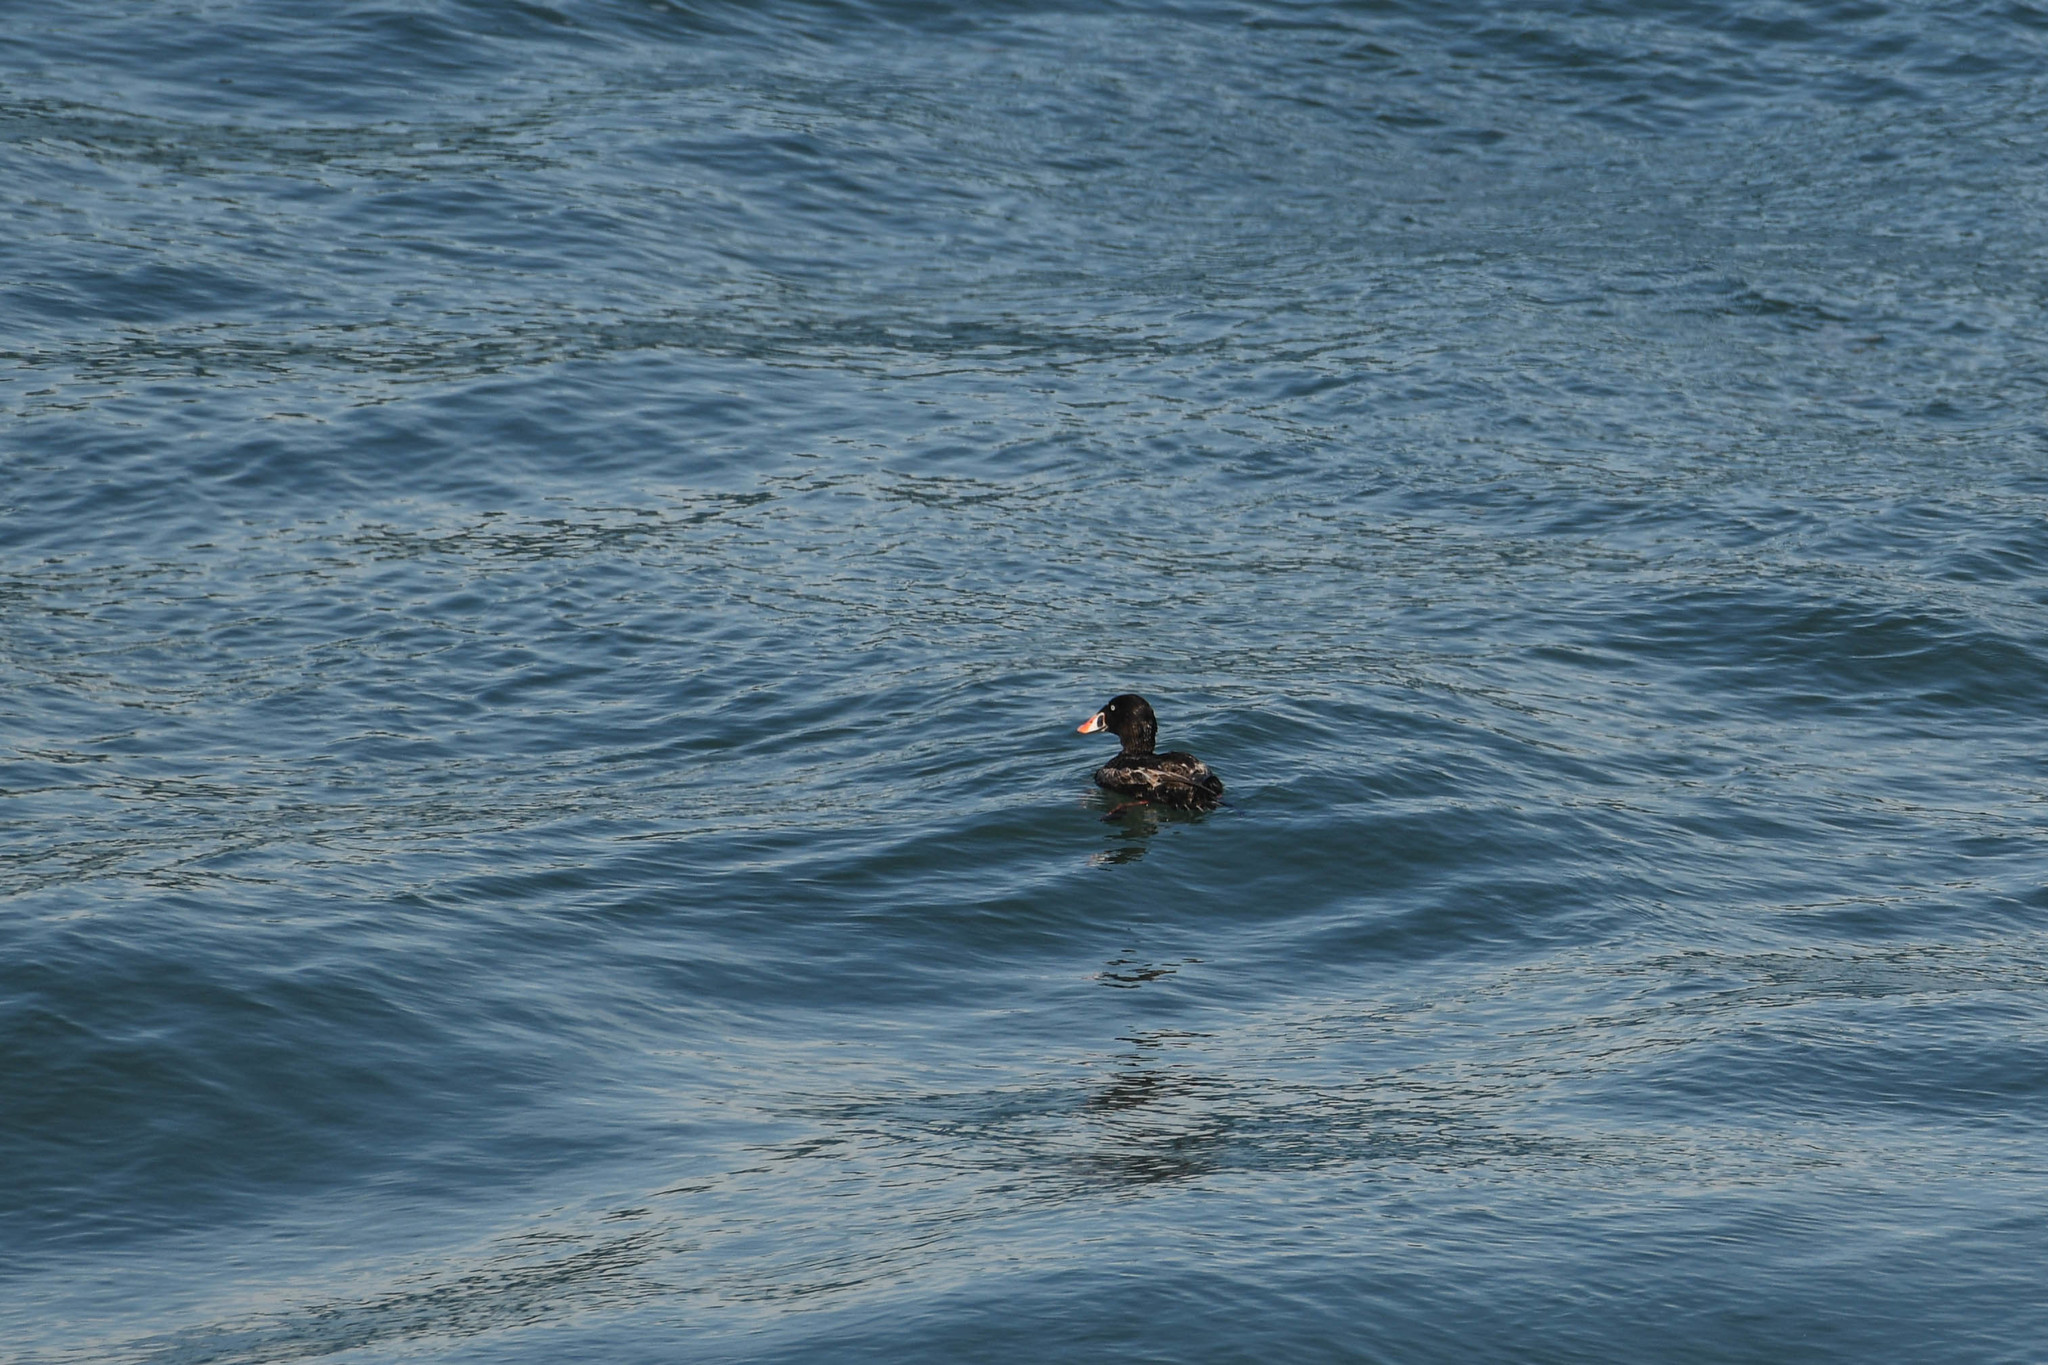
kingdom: Animalia
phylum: Chordata
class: Aves
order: Anseriformes
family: Anatidae
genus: Melanitta
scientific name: Melanitta perspicillata
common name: Surf scoter
